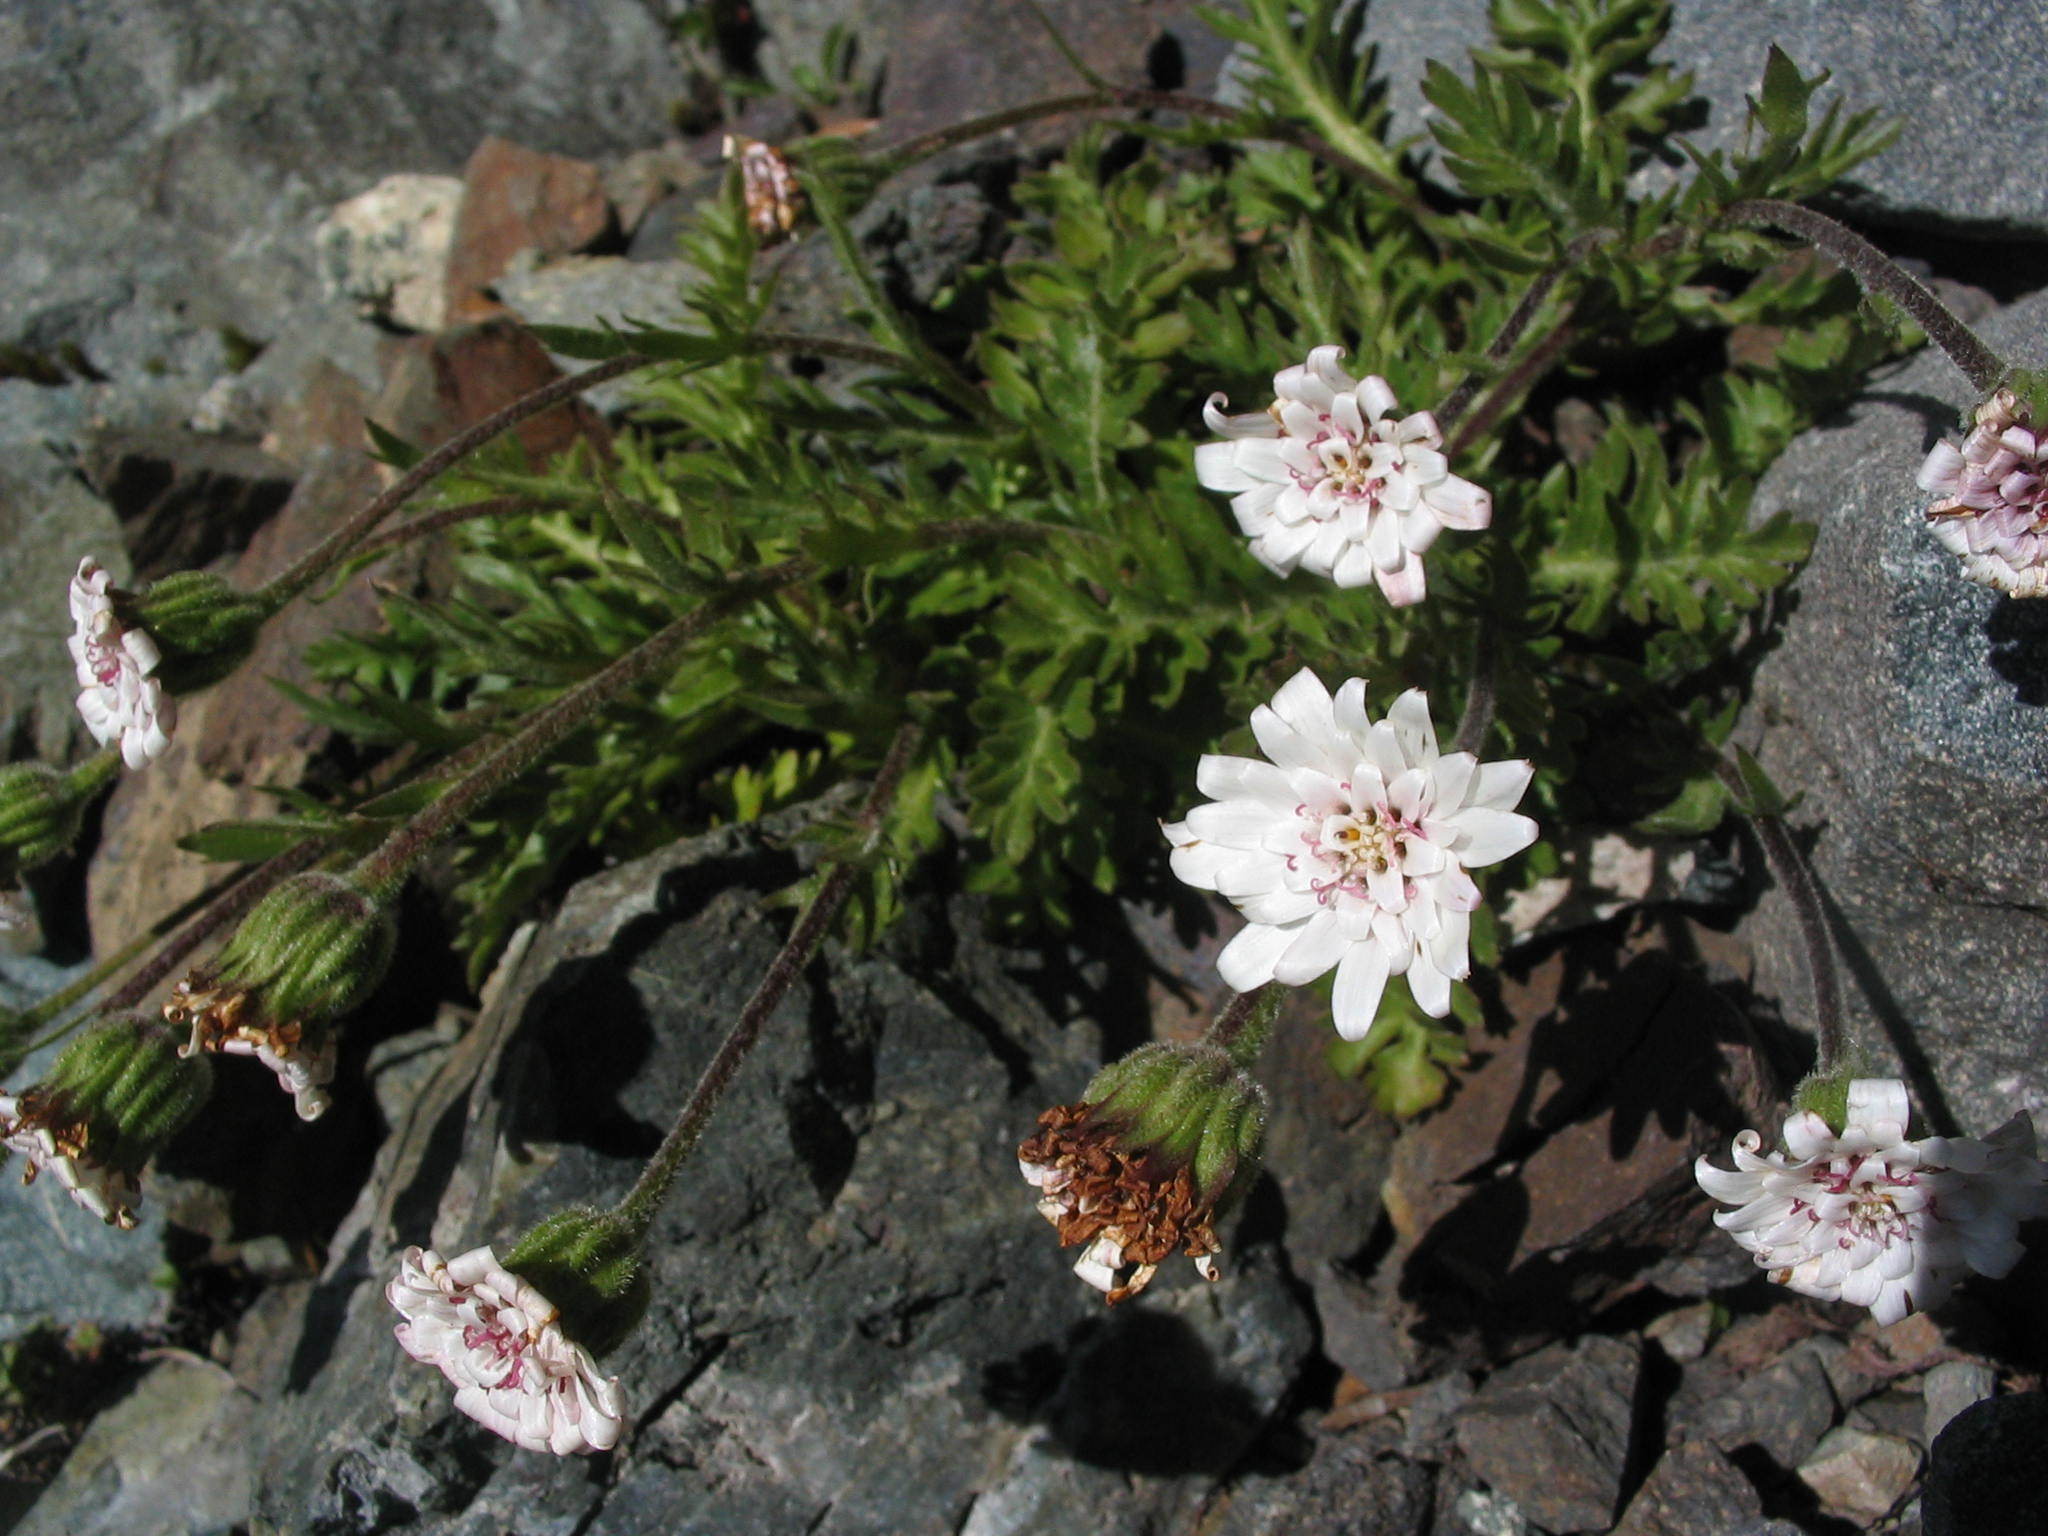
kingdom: Plantae
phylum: Tracheophyta
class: Magnoliopsida
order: Asterales
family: Asteraceae
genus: Leucheria
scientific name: Leucheria papillosa
